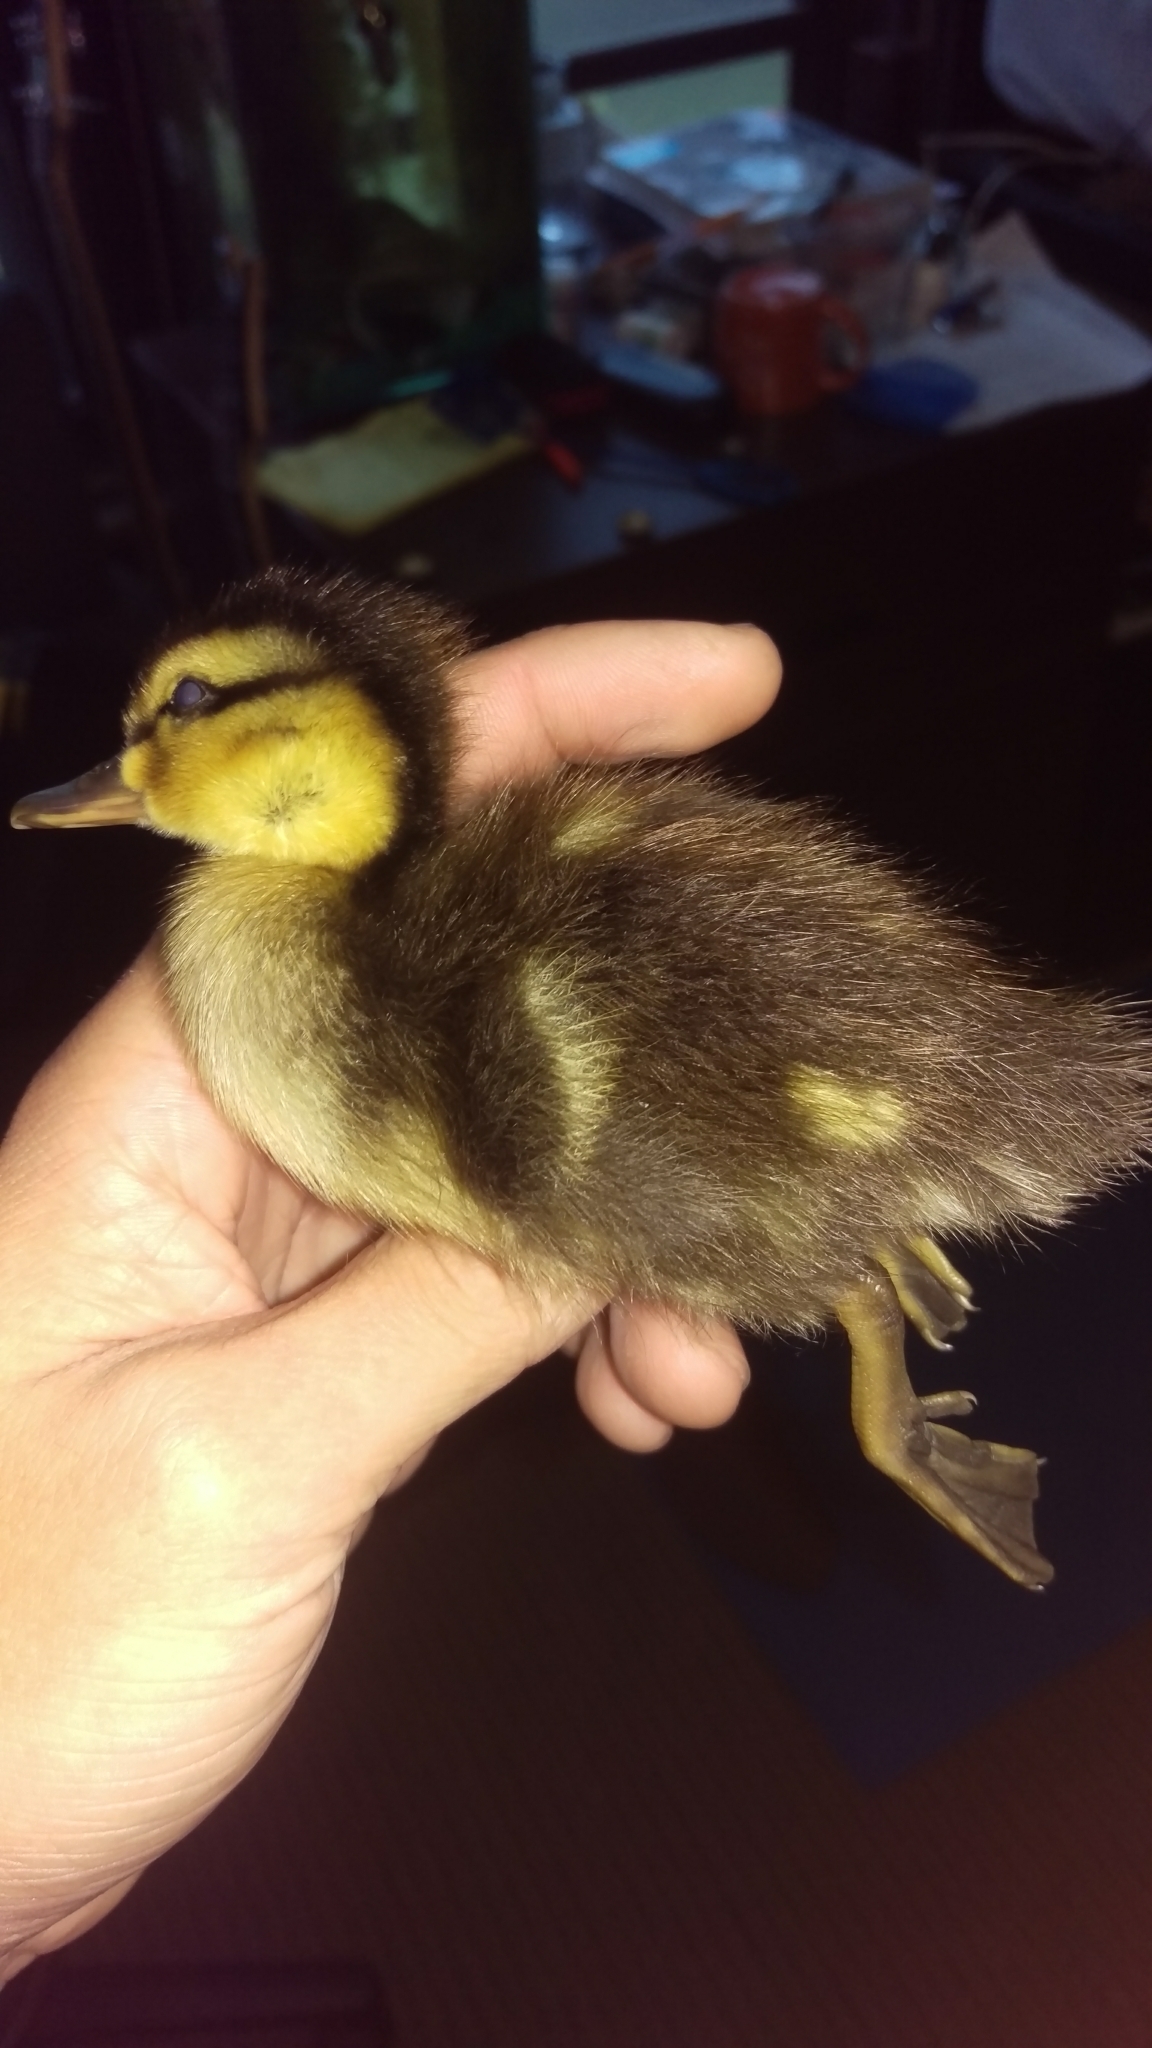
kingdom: Animalia
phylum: Chordata
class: Aves
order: Anseriformes
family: Anatidae
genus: Anas
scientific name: Anas platyrhynchos
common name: Mallard
